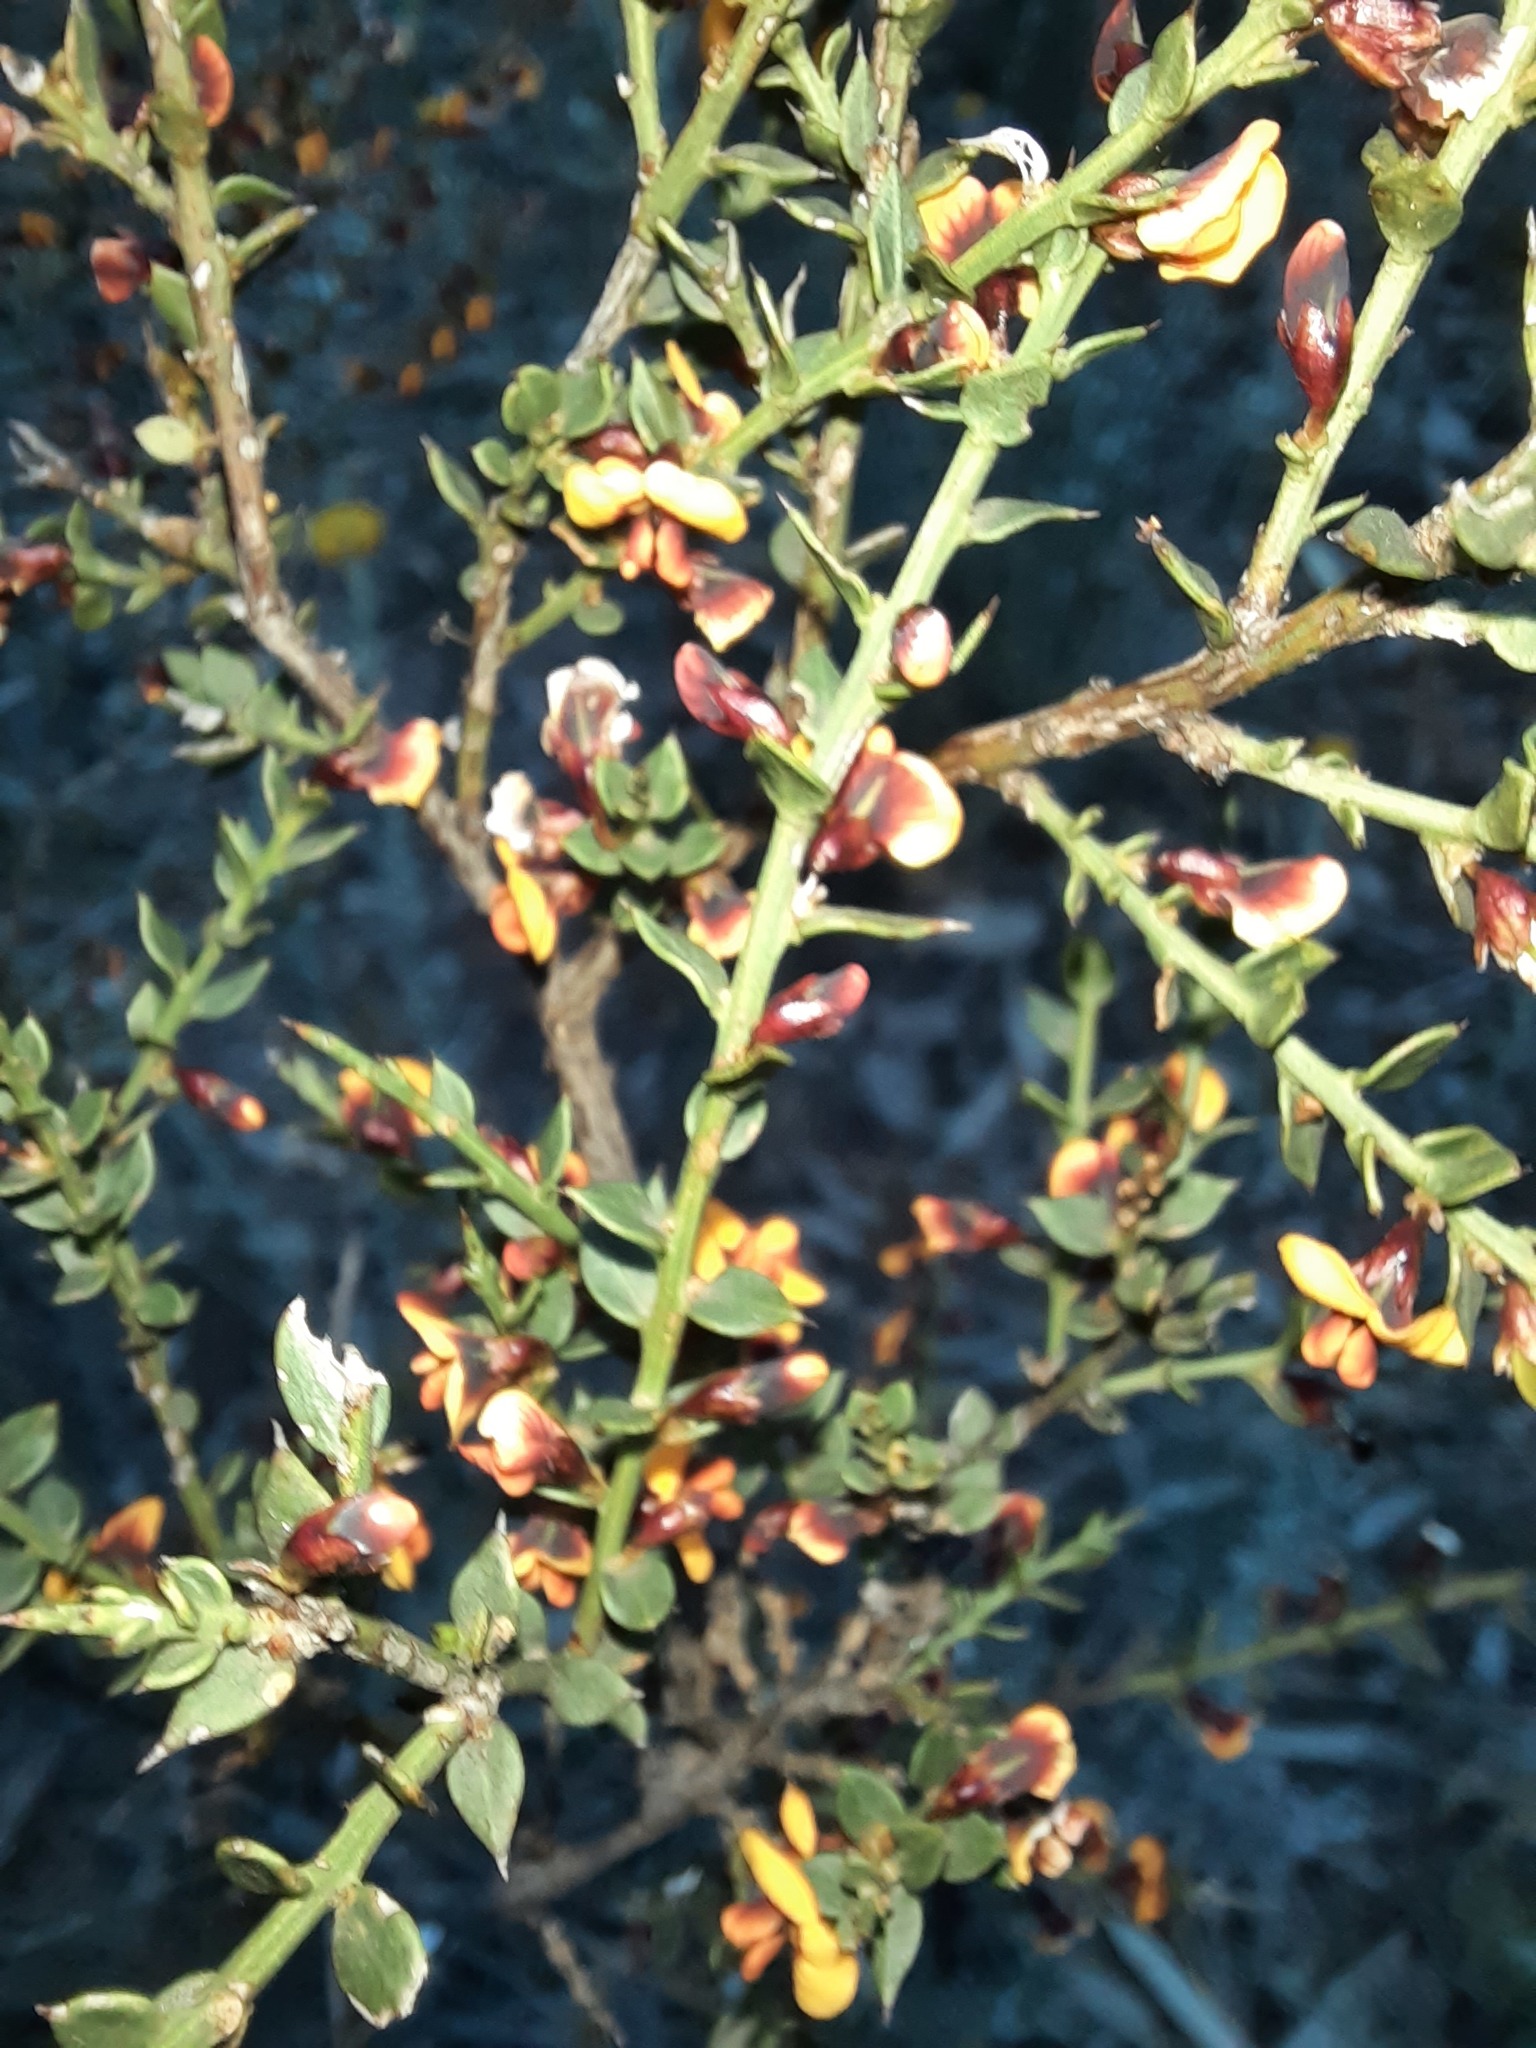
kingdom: Plantae
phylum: Tracheophyta
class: Magnoliopsida
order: Fabales
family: Fabaceae
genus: Daviesia
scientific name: Daviesia ulicifolia
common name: Gorse bitter-pea
